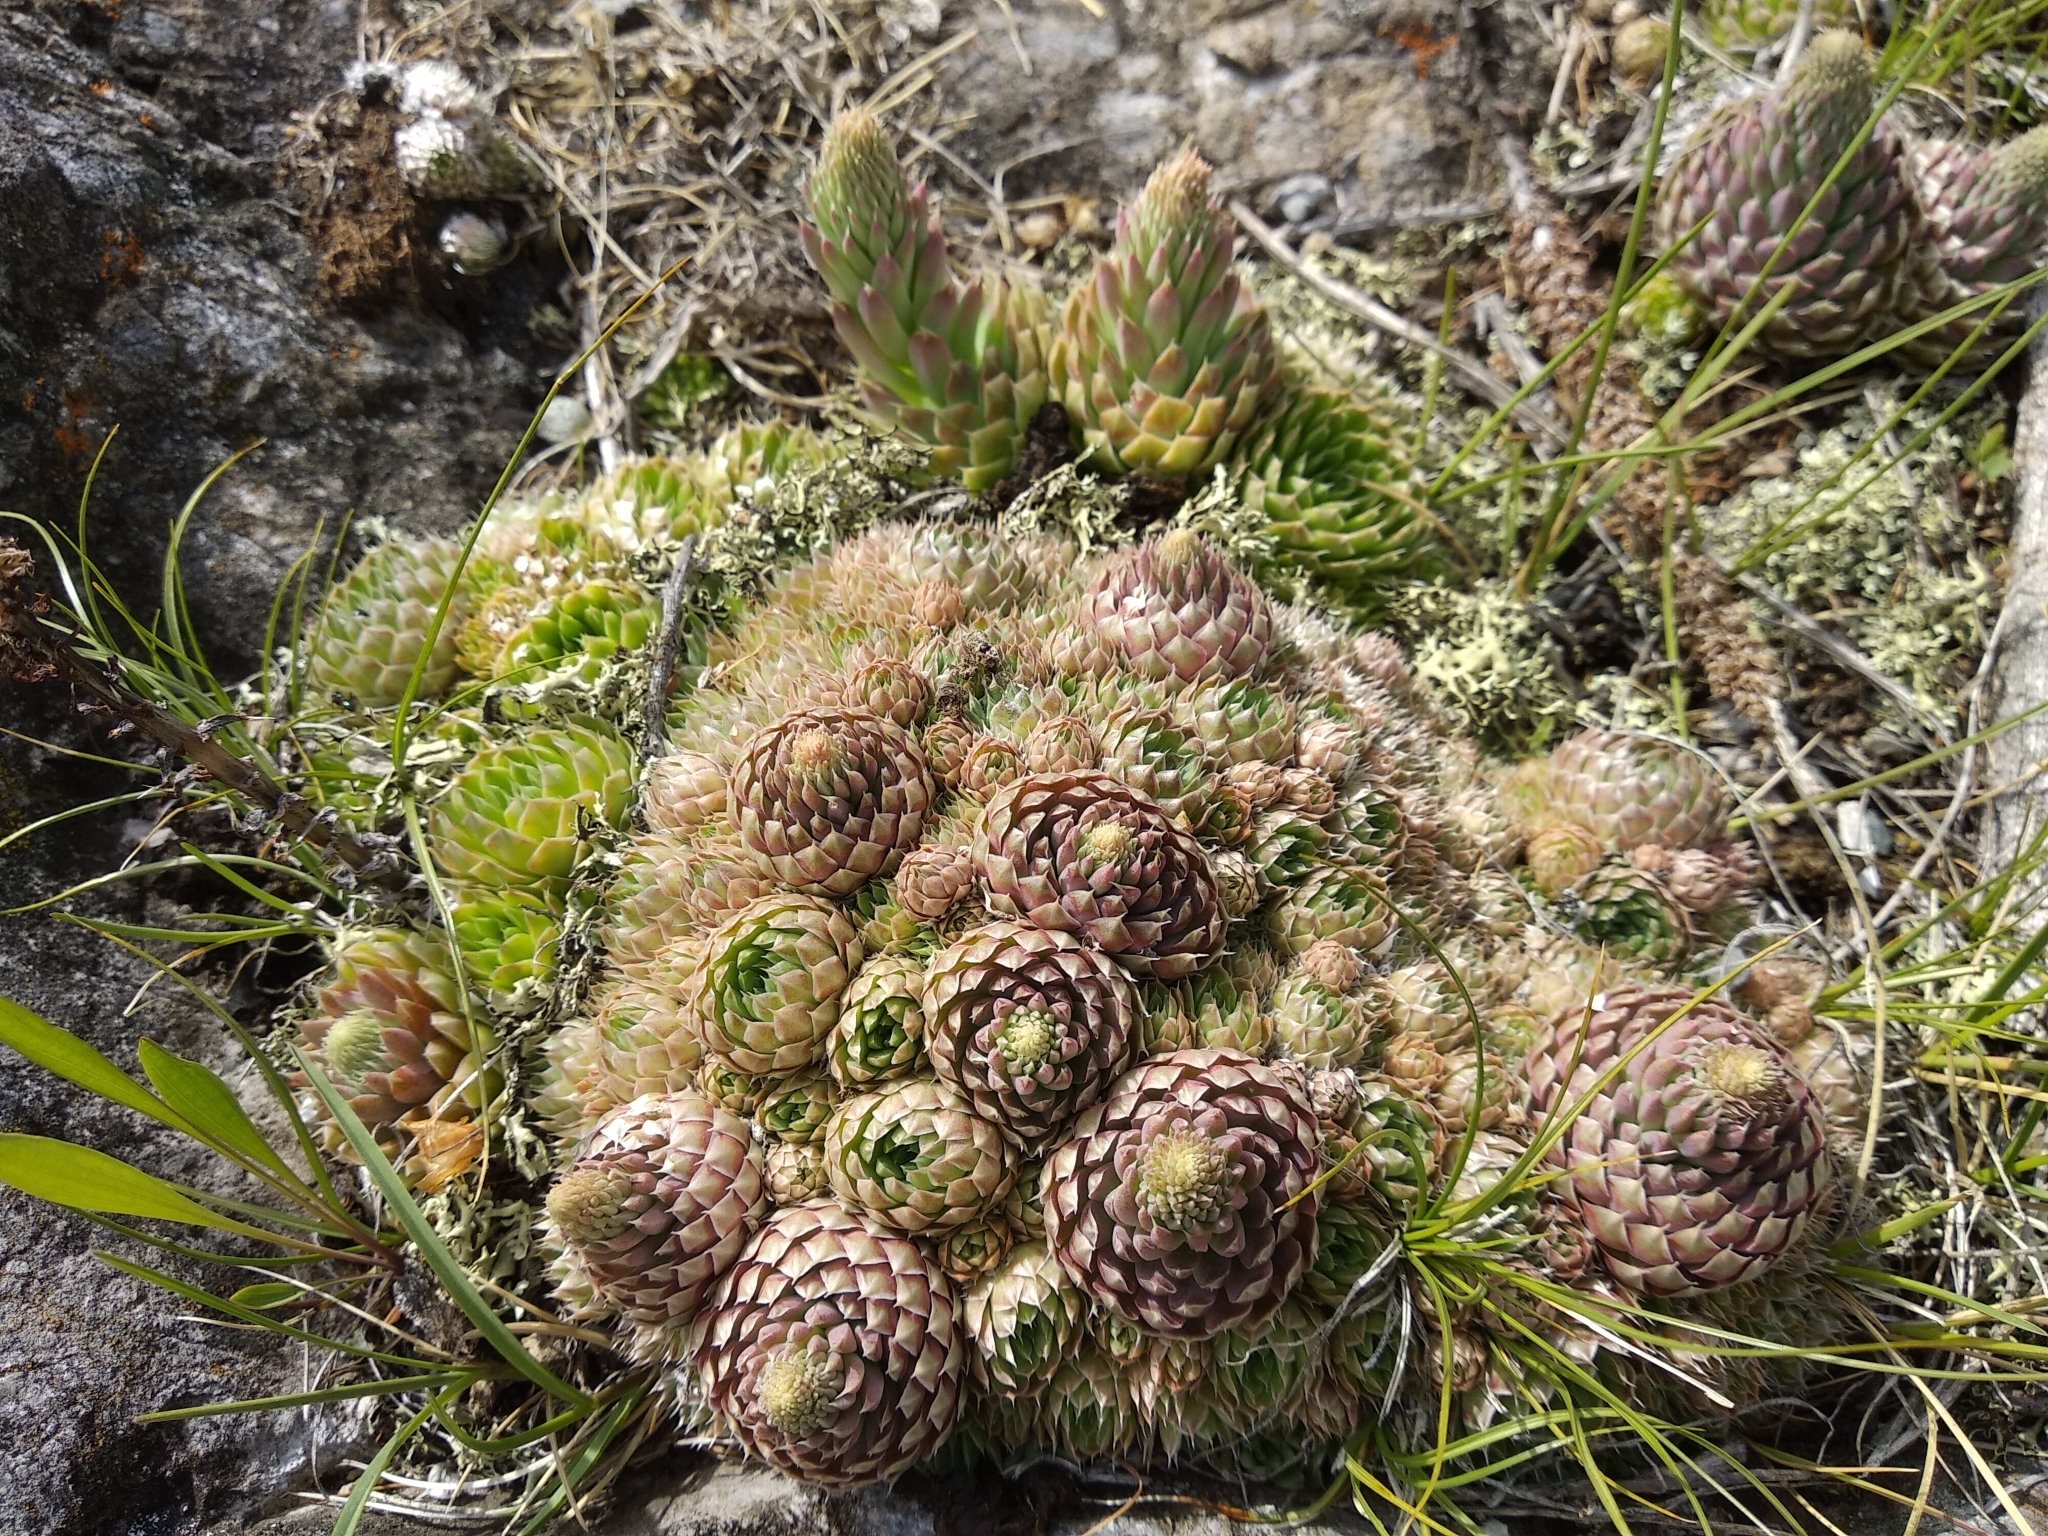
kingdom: Plantae
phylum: Tracheophyta
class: Magnoliopsida
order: Saxifragales
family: Crassulaceae
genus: Orostachys
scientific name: Orostachys spinosa
